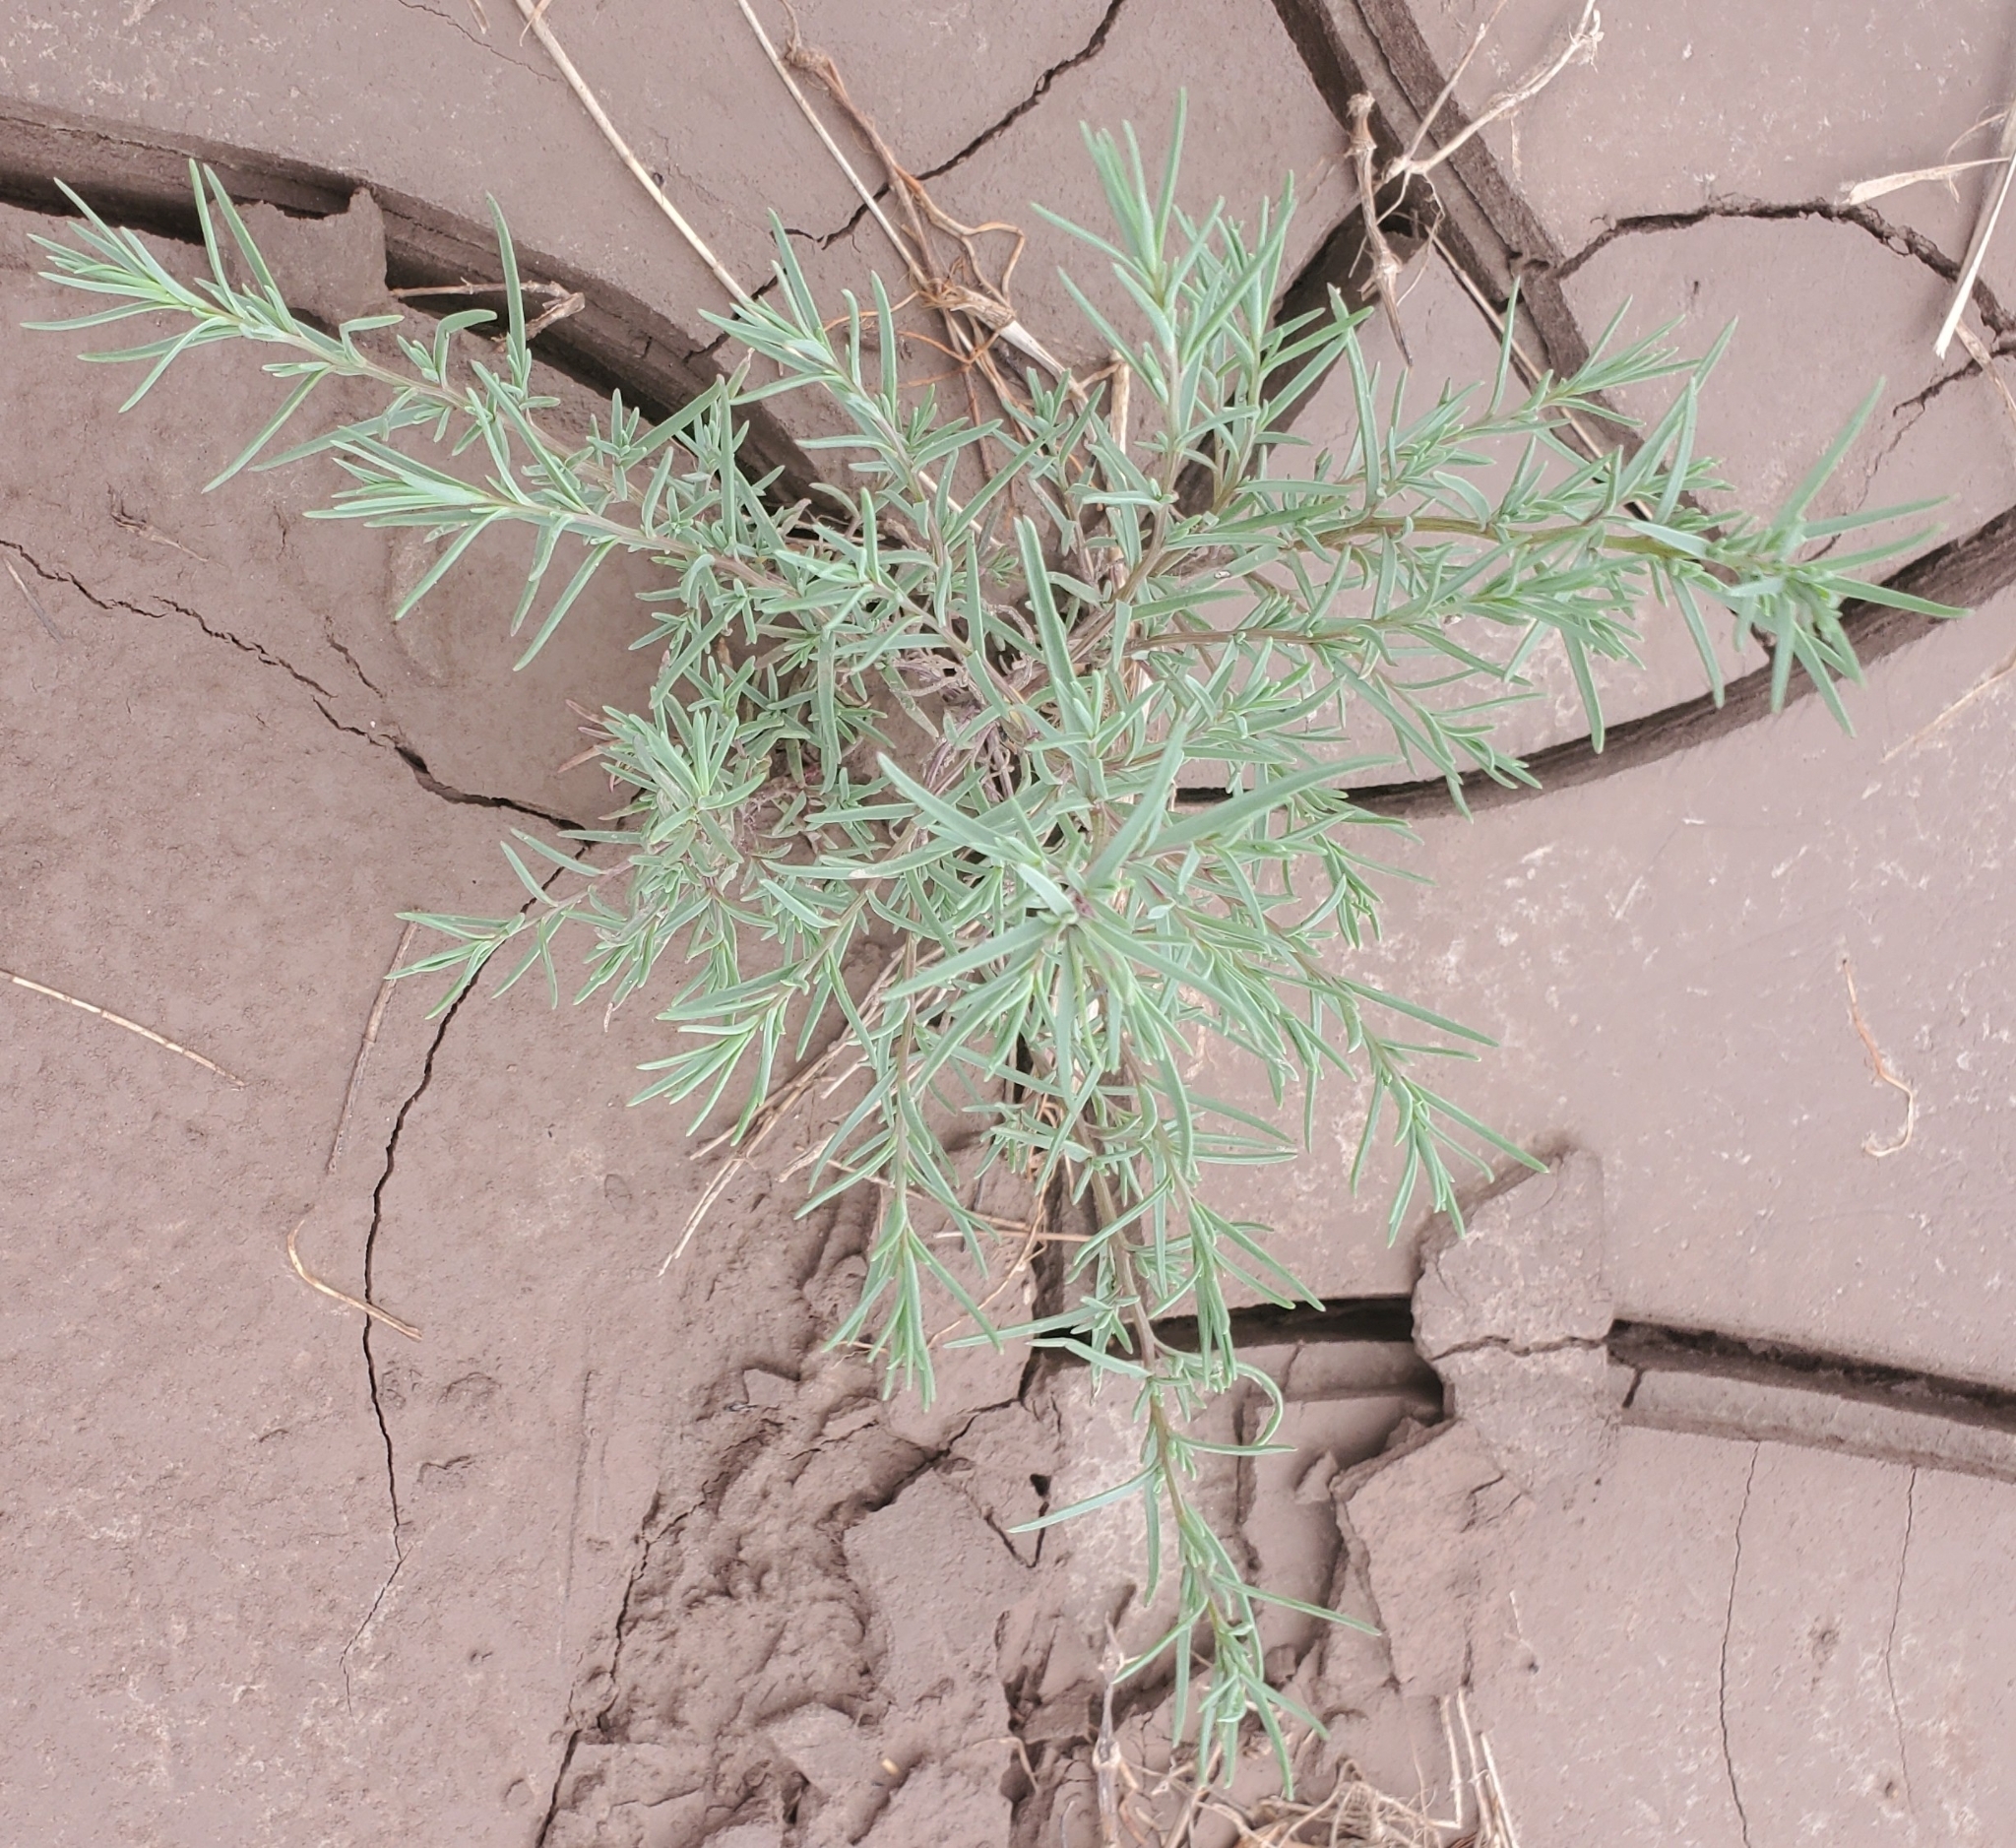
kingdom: Plantae
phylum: Tracheophyta
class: Magnoliopsida
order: Caryophyllales
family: Amaranthaceae
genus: Suaeda
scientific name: Suaeda maritima
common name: Annual sea-blite
